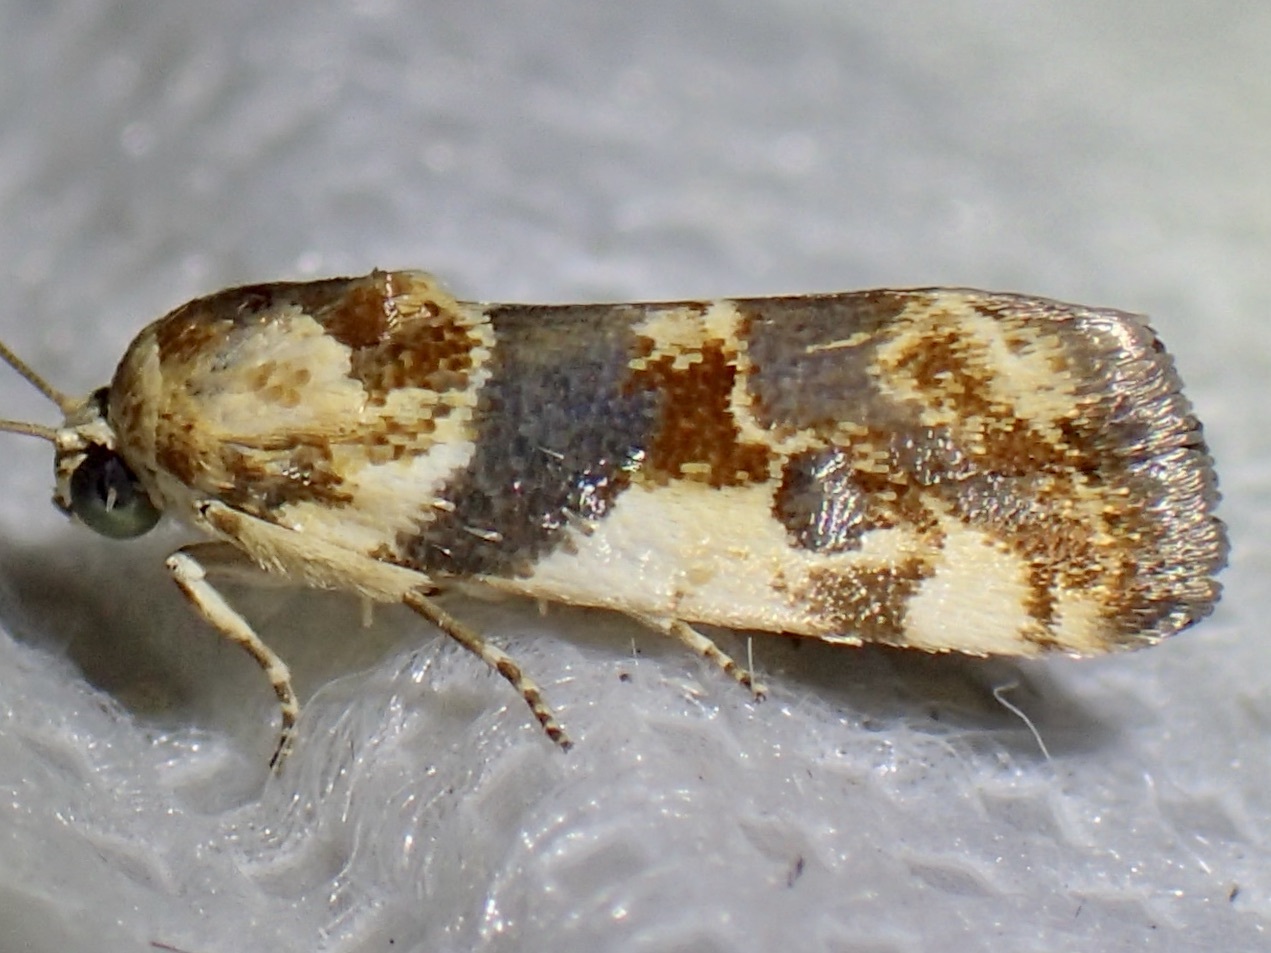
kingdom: Animalia
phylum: Arthropoda
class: Insecta
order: Lepidoptera
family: Noctuidae
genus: Acontia
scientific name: Acontia obatra
